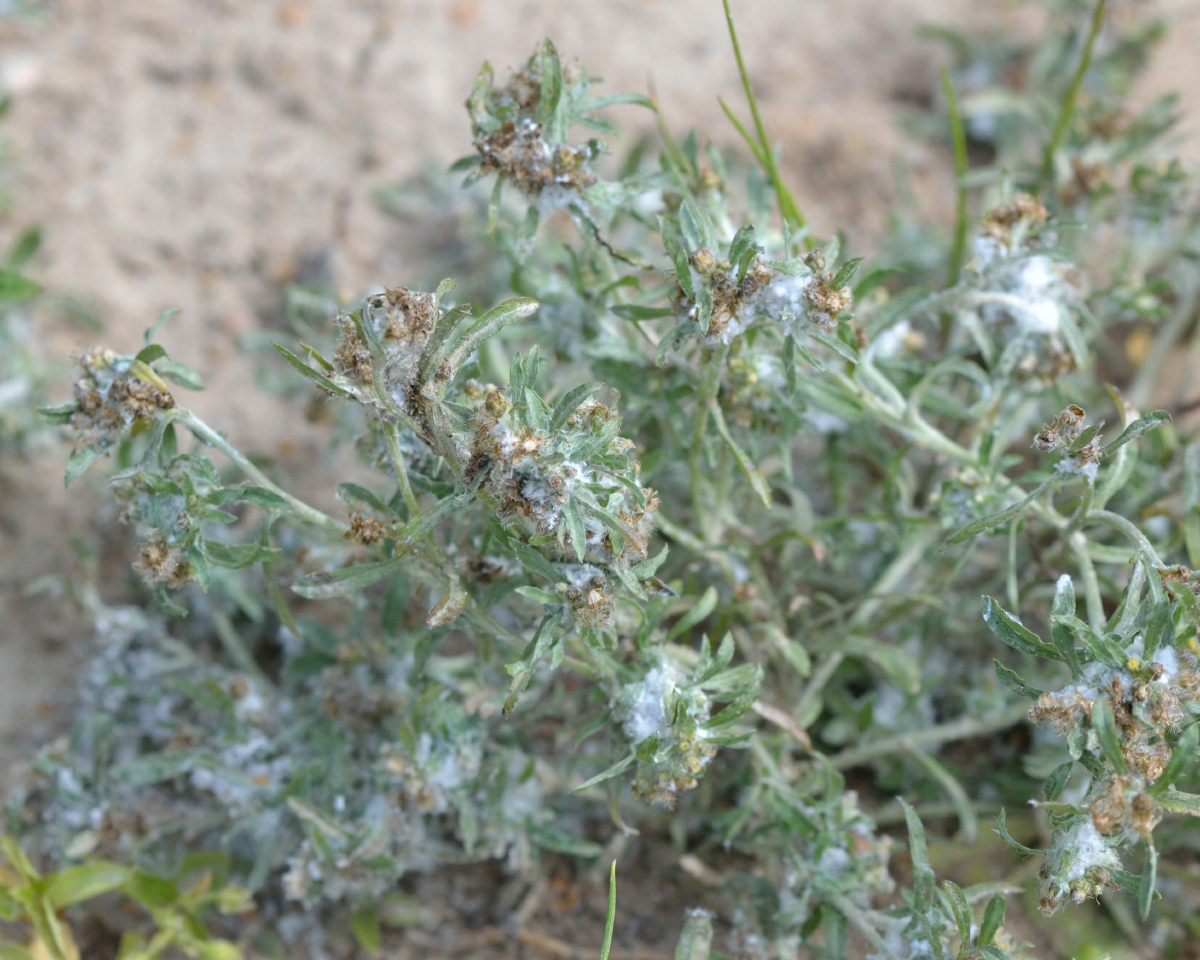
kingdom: Plantae
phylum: Tracheophyta
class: Magnoliopsida
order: Asterales
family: Asteraceae
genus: Gnaphalium
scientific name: Gnaphalium uliginosum
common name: Marsh cudweed
